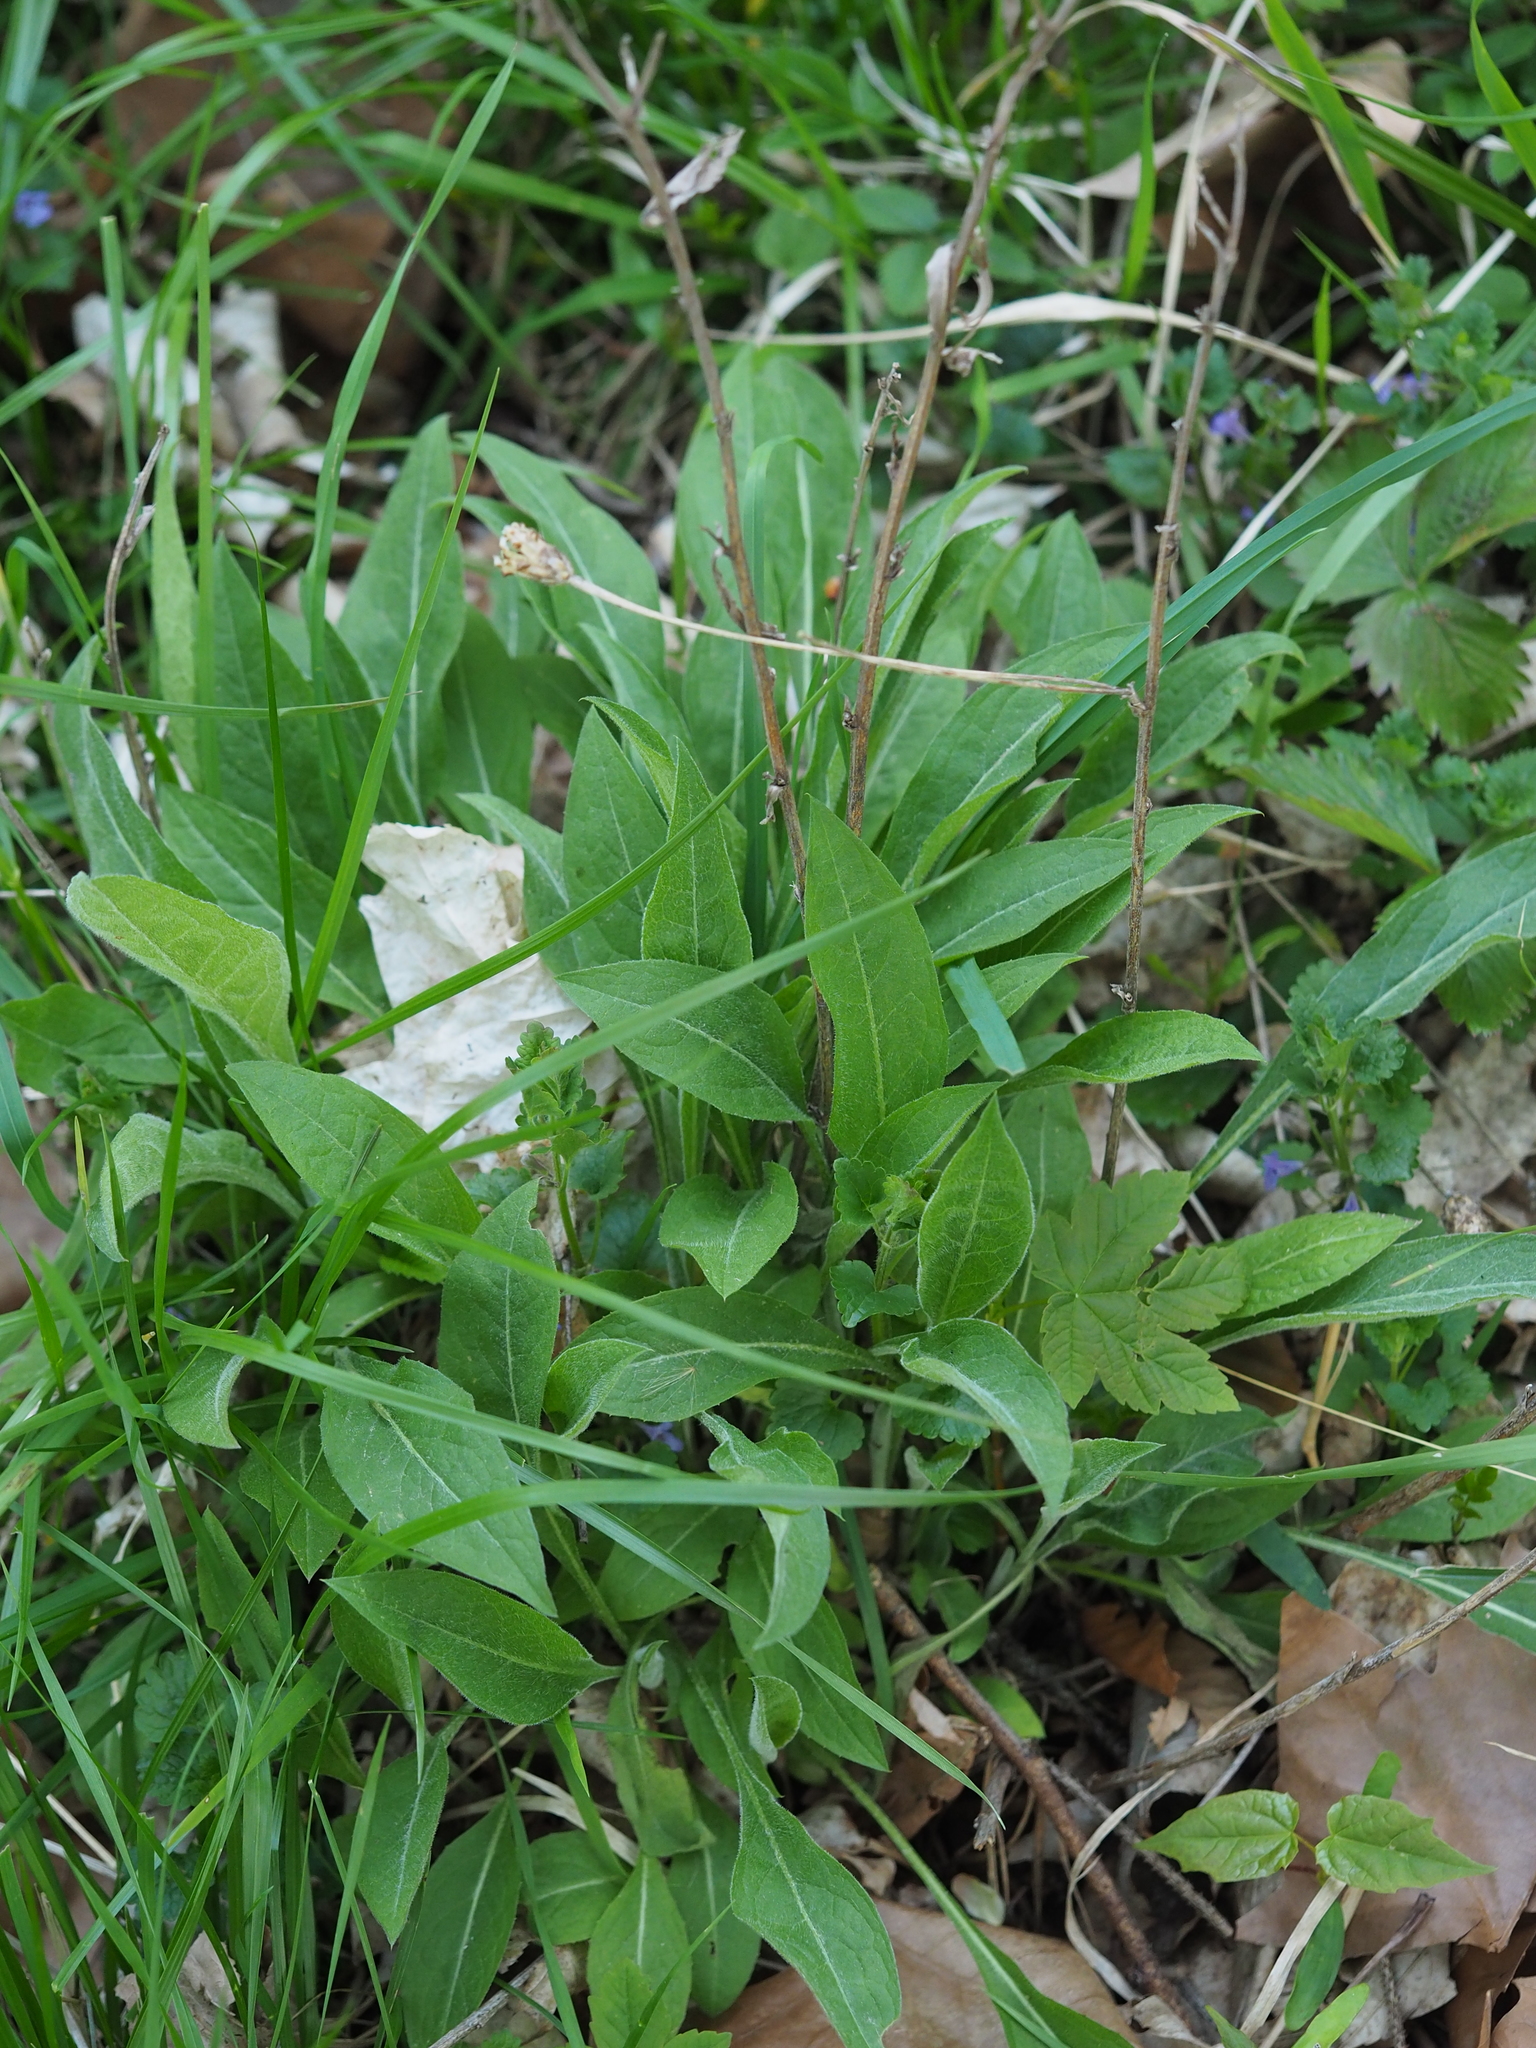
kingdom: Plantae
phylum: Tracheophyta
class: Magnoliopsida
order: Asterales
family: Asteraceae
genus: Centaurea
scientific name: Centaurea jacea
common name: Brown knapweed
